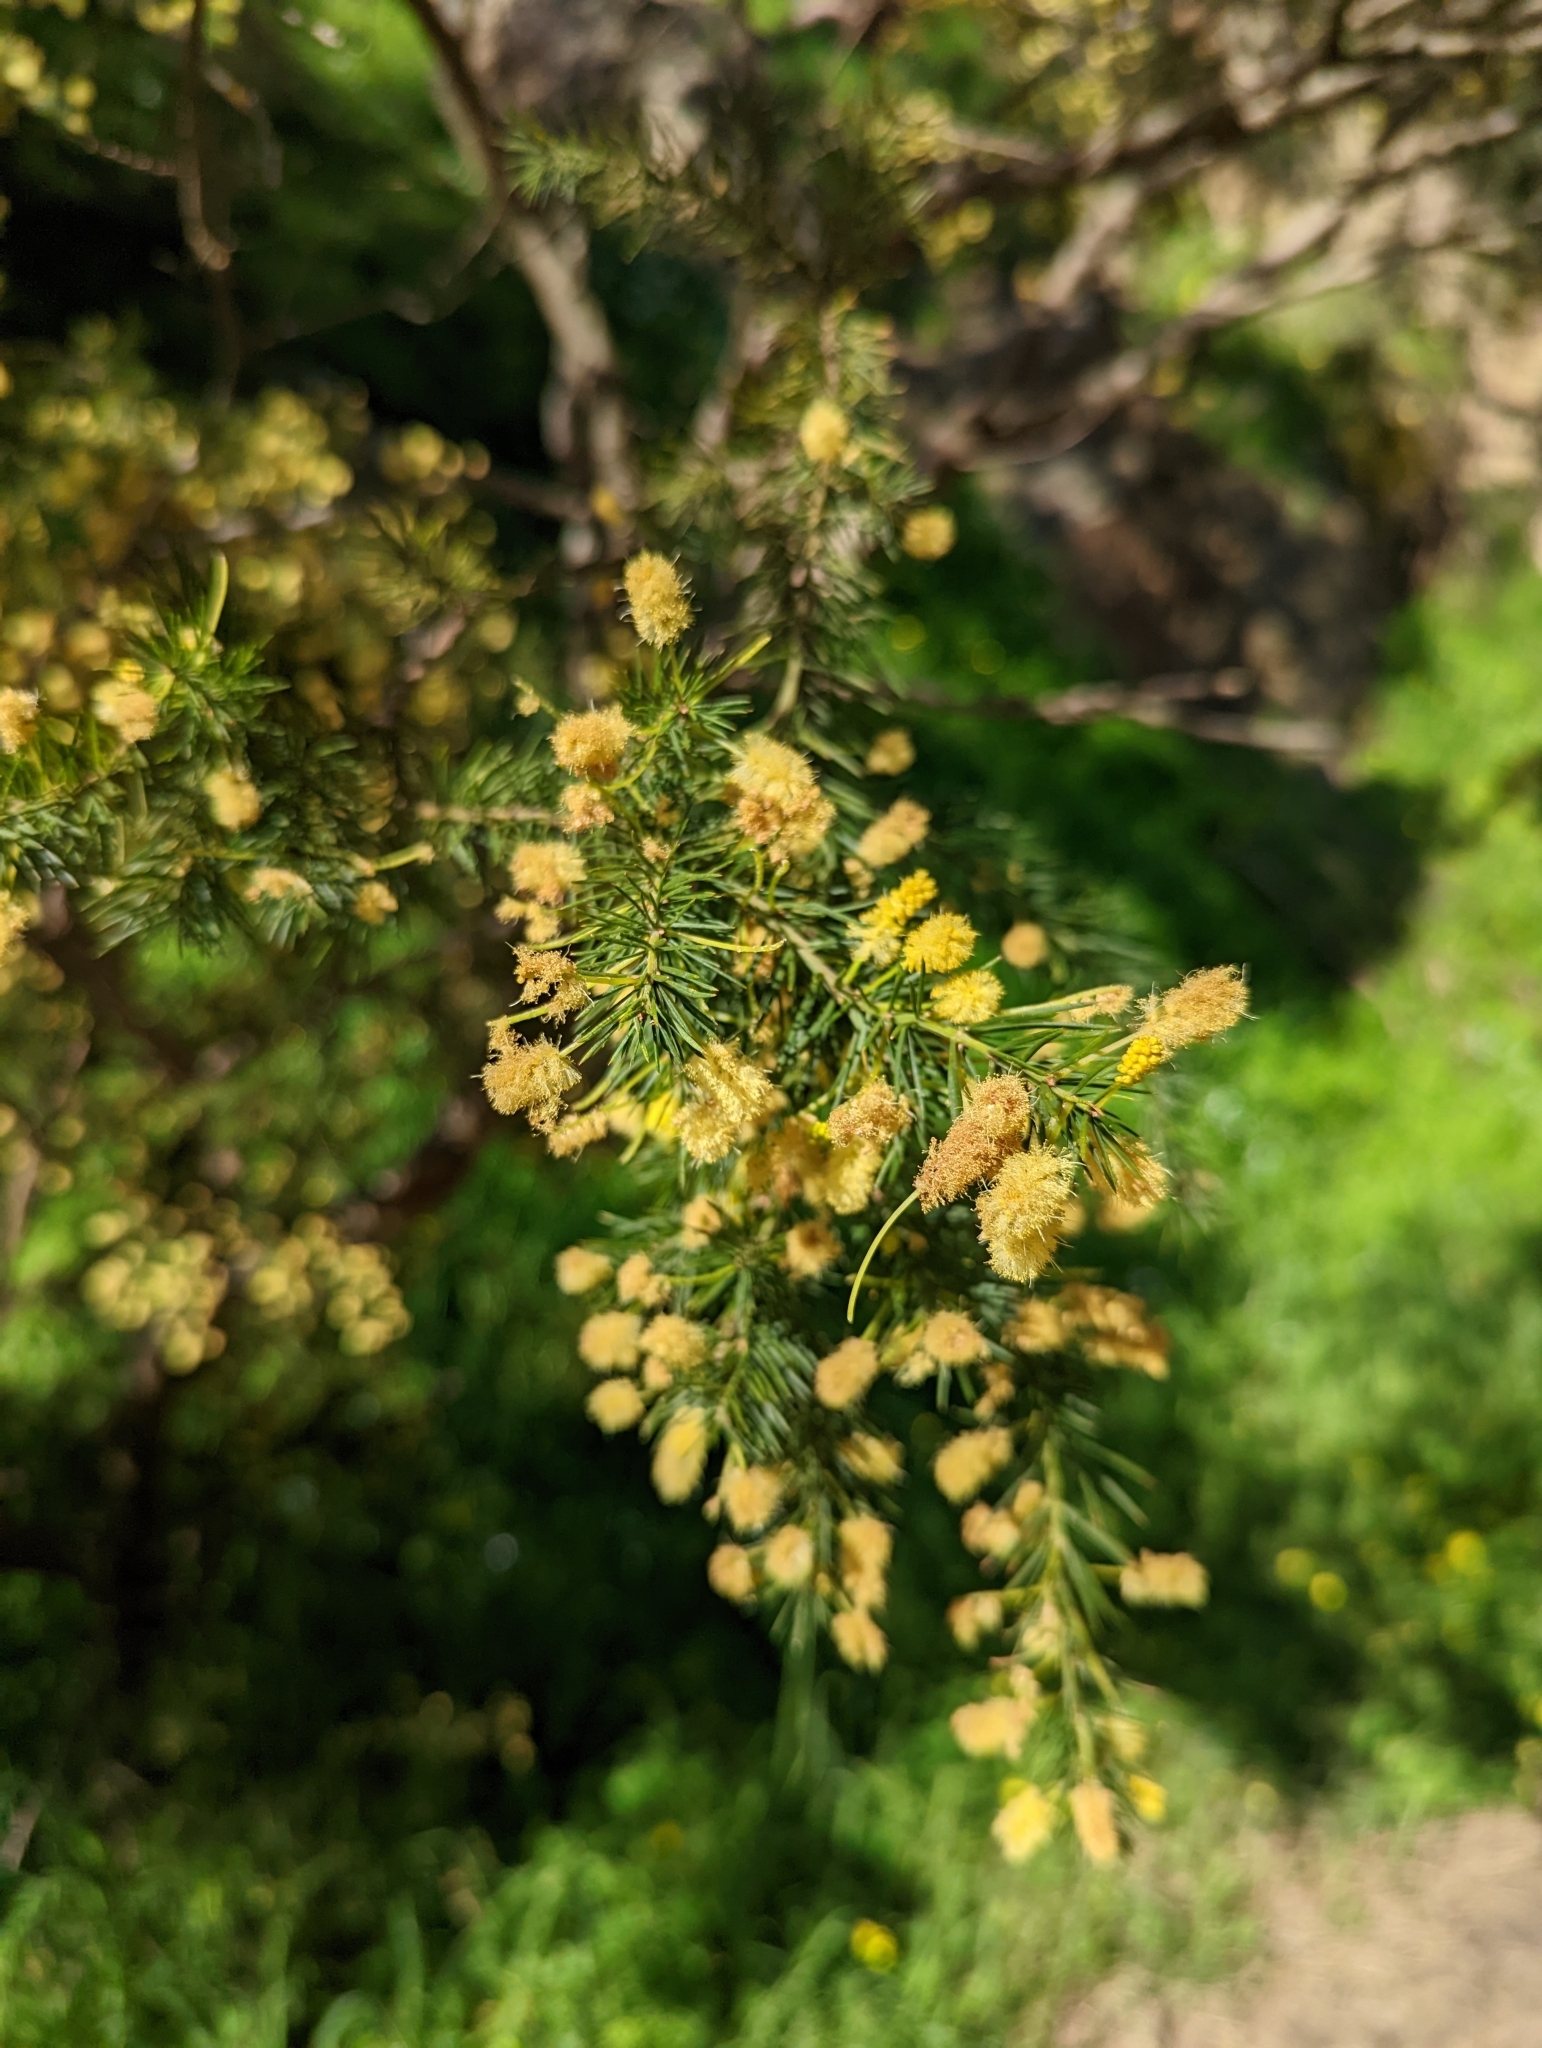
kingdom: Plantae
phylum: Tracheophyta
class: Magnoliopsida
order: Fabales
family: Fabaceae
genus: Acacia
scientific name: Acacia verticillata
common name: Prickly moses
